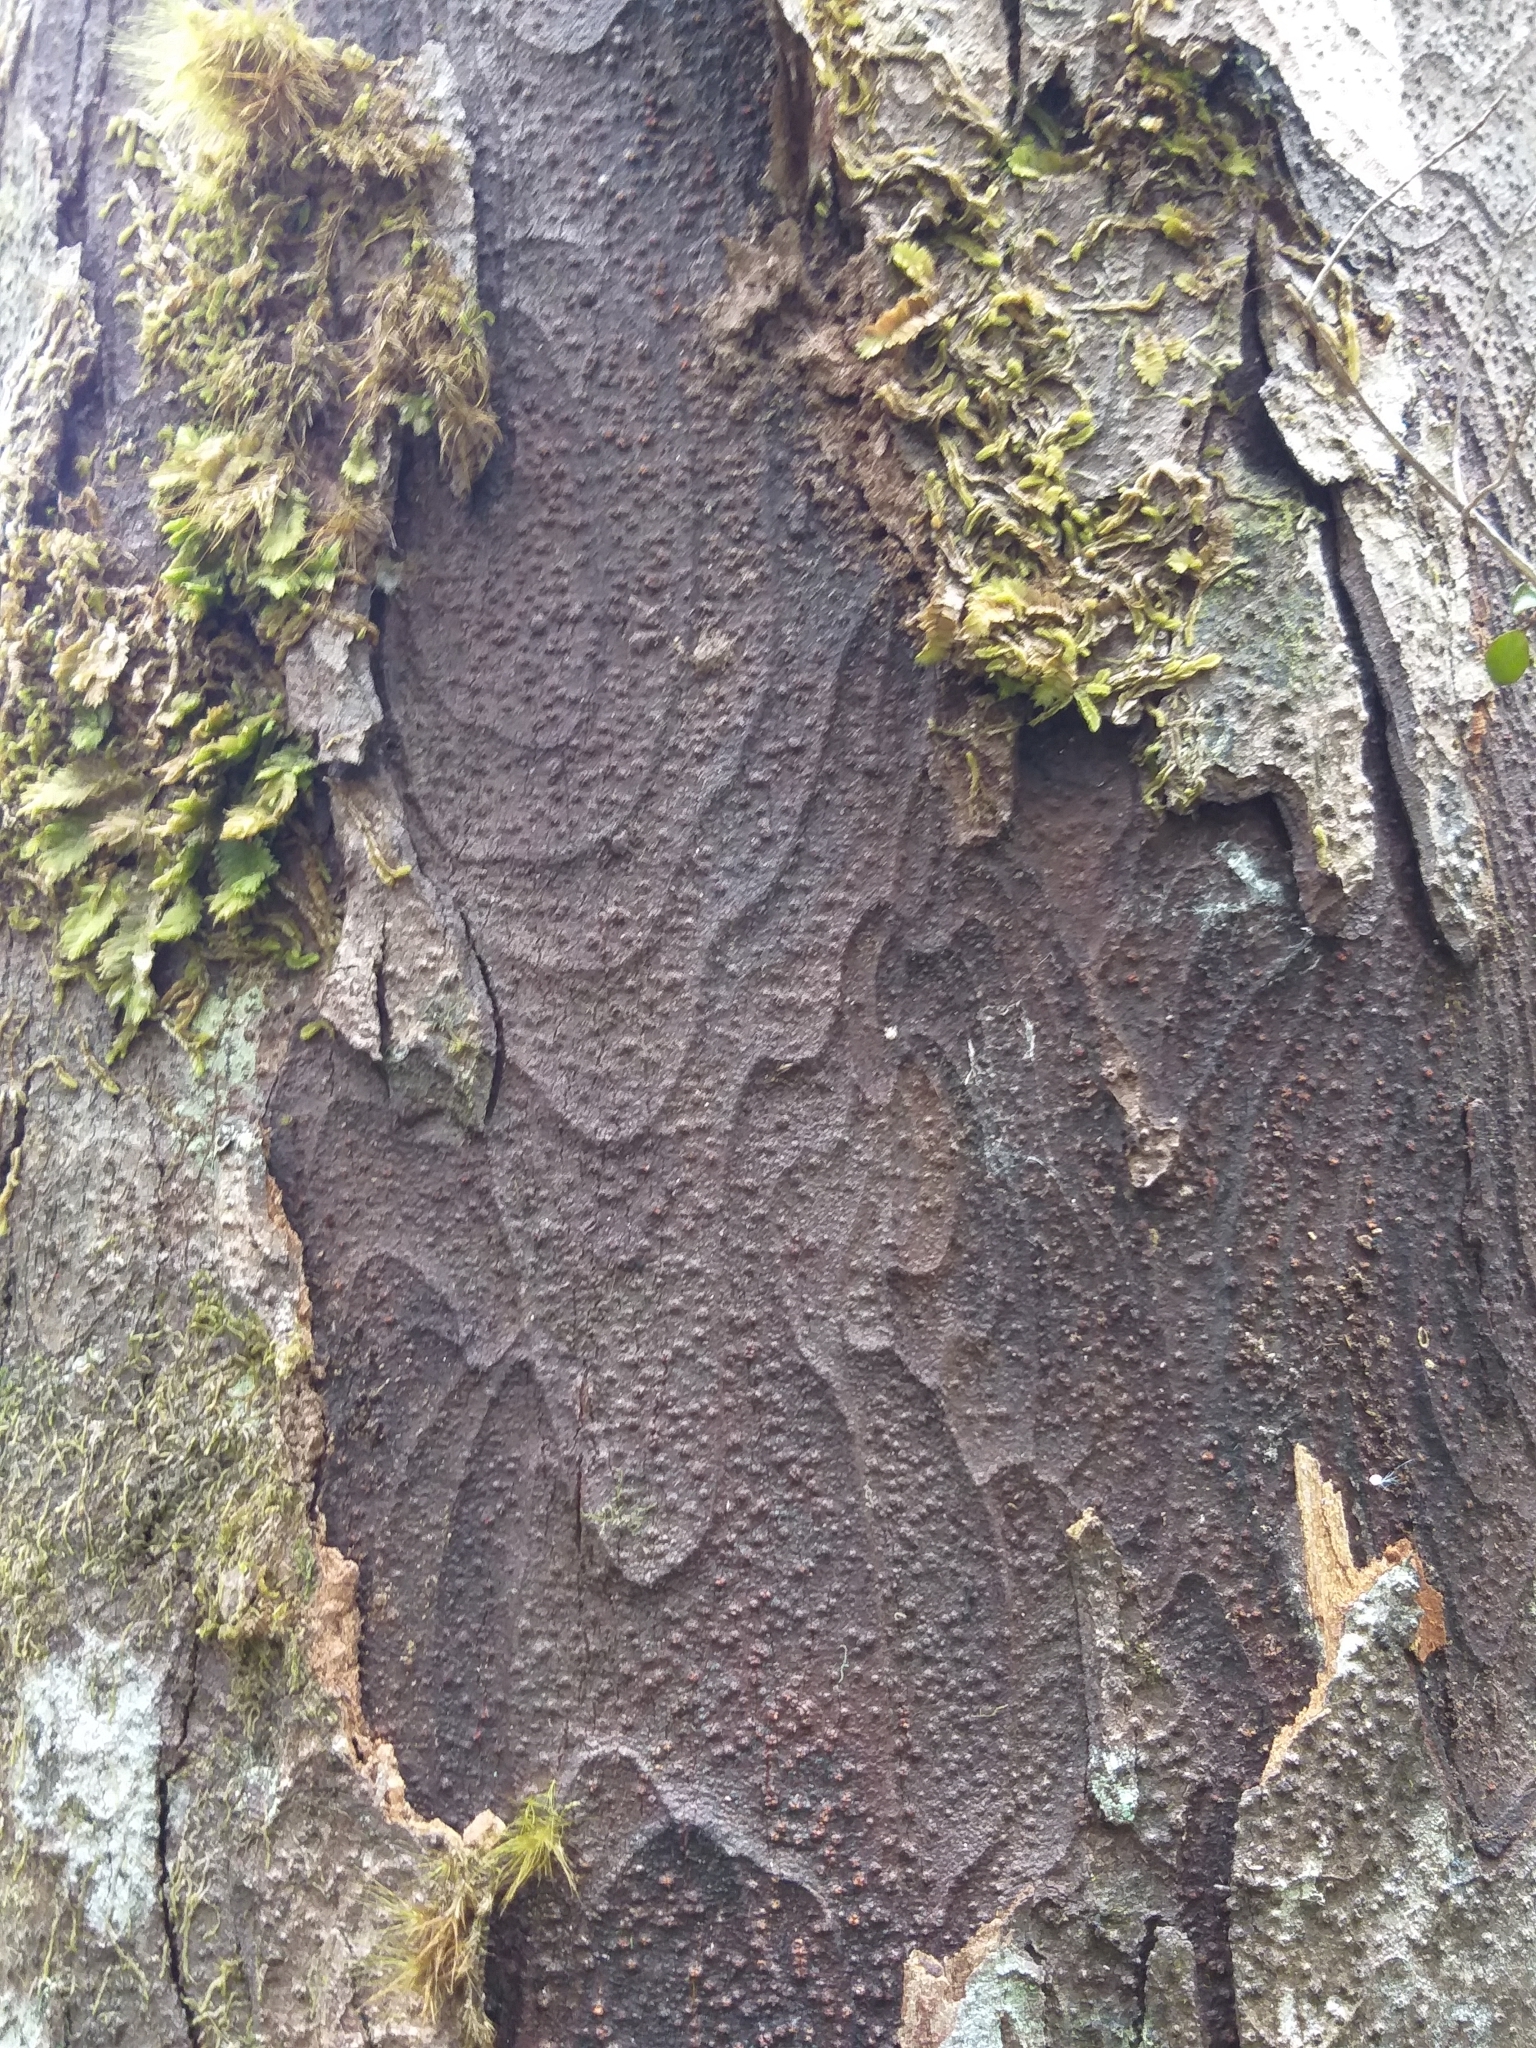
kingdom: Plantae
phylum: Tracheophyta
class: Pinopsida
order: Pinales
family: Podocarpaceae
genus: Dacrydium
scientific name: Dacrydium cupressinum
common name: Red pine
